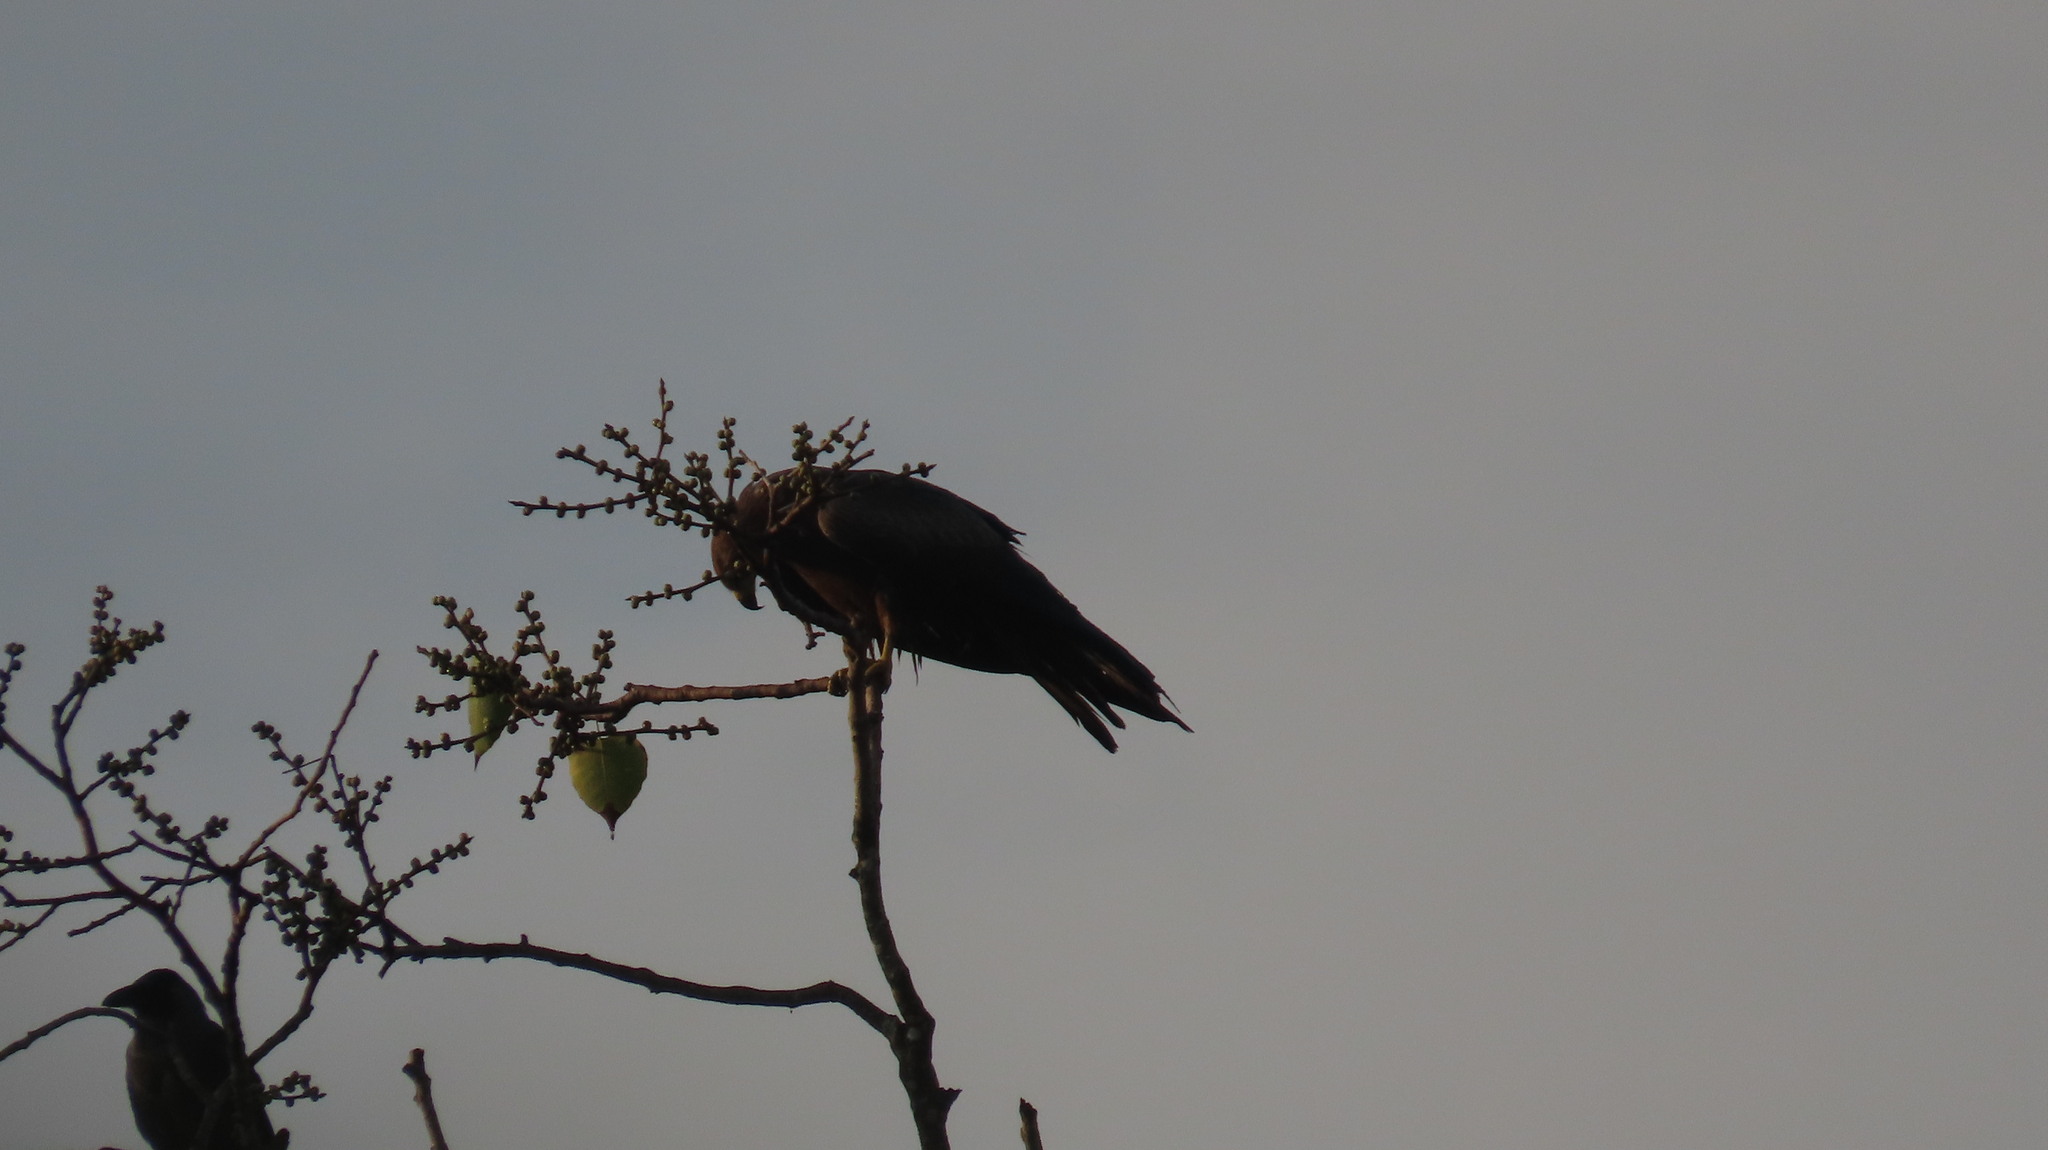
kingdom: Animalia
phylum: Chordata
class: Aves
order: Accipitriformes
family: Accipitridae
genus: Milvus
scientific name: Milvus migrans
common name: Black kite
